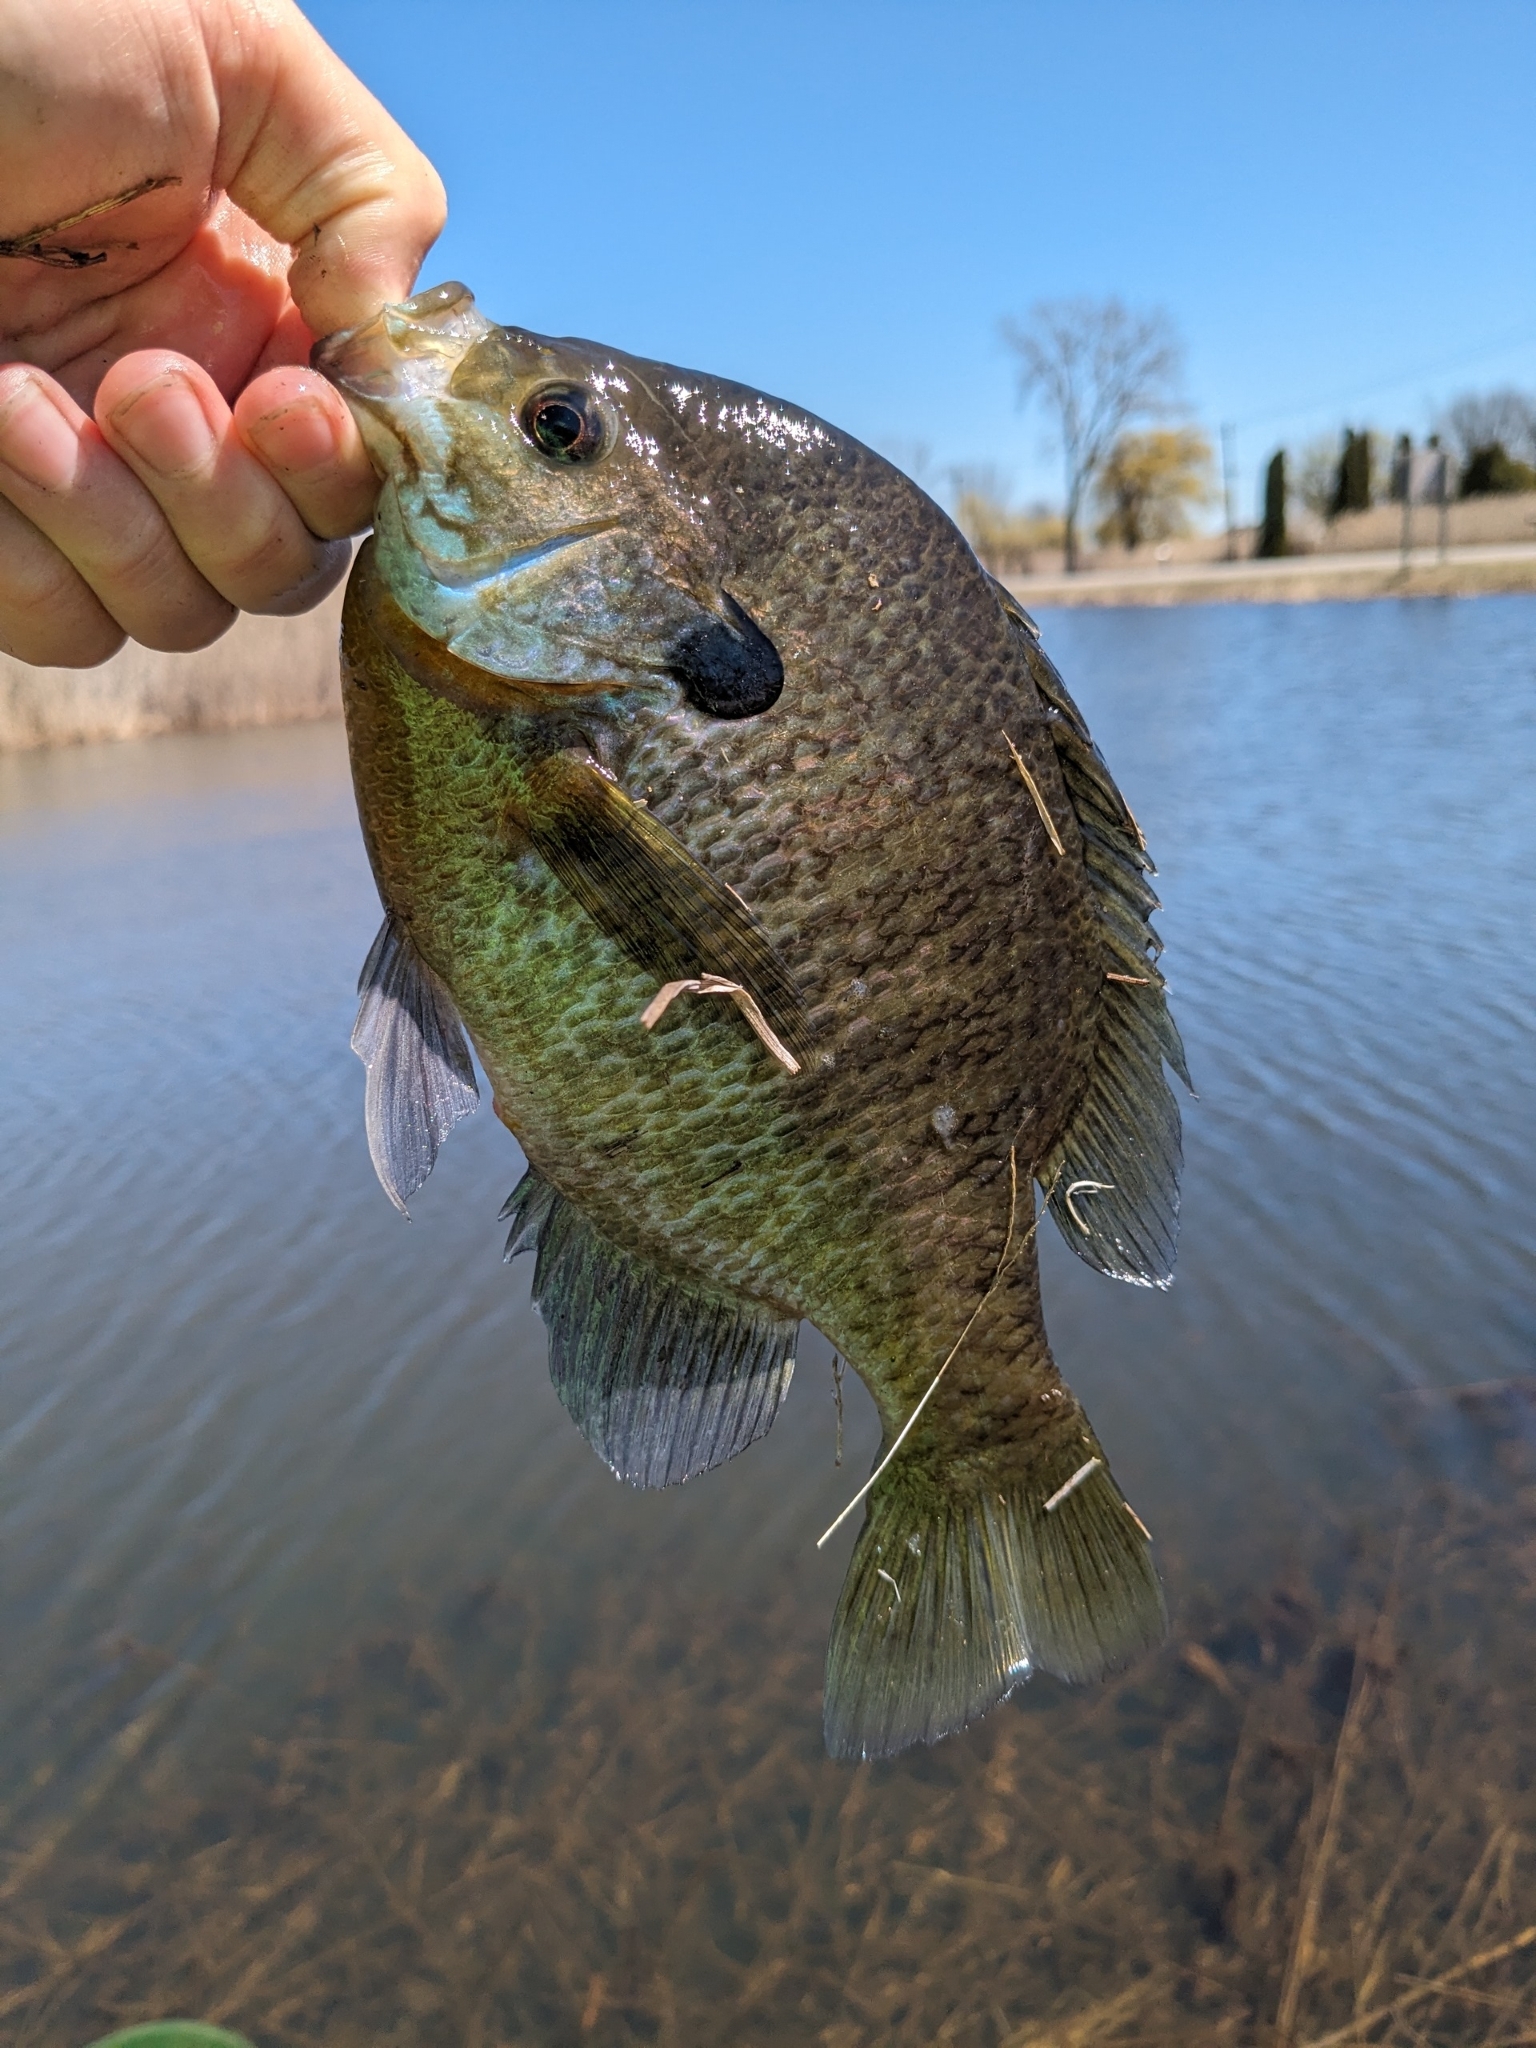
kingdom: Animalia
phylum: Chordata
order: Perciformes
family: Centrarchidae
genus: Lepomis
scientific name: Lepomis macrochirus
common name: Bluegill
